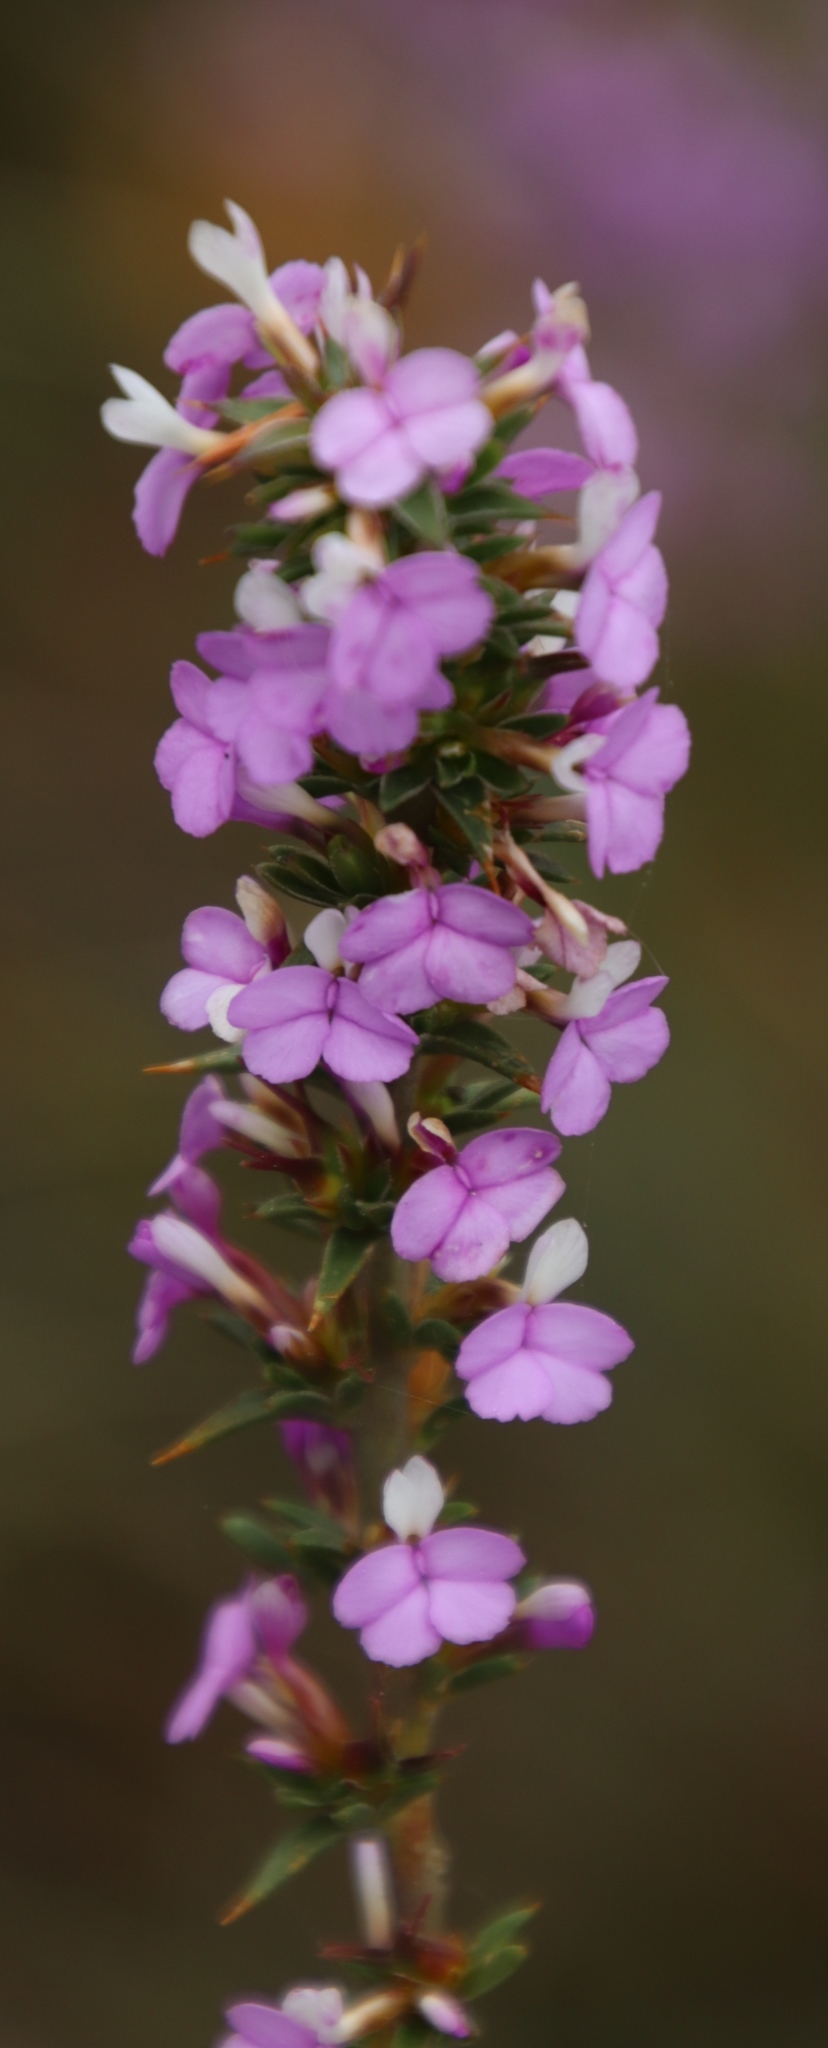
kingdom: Plantae
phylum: Tracheophyta
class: Magnoliopsida
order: Fabales
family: Polygalaceae
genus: Muraltia
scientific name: Muraltia heisteria
